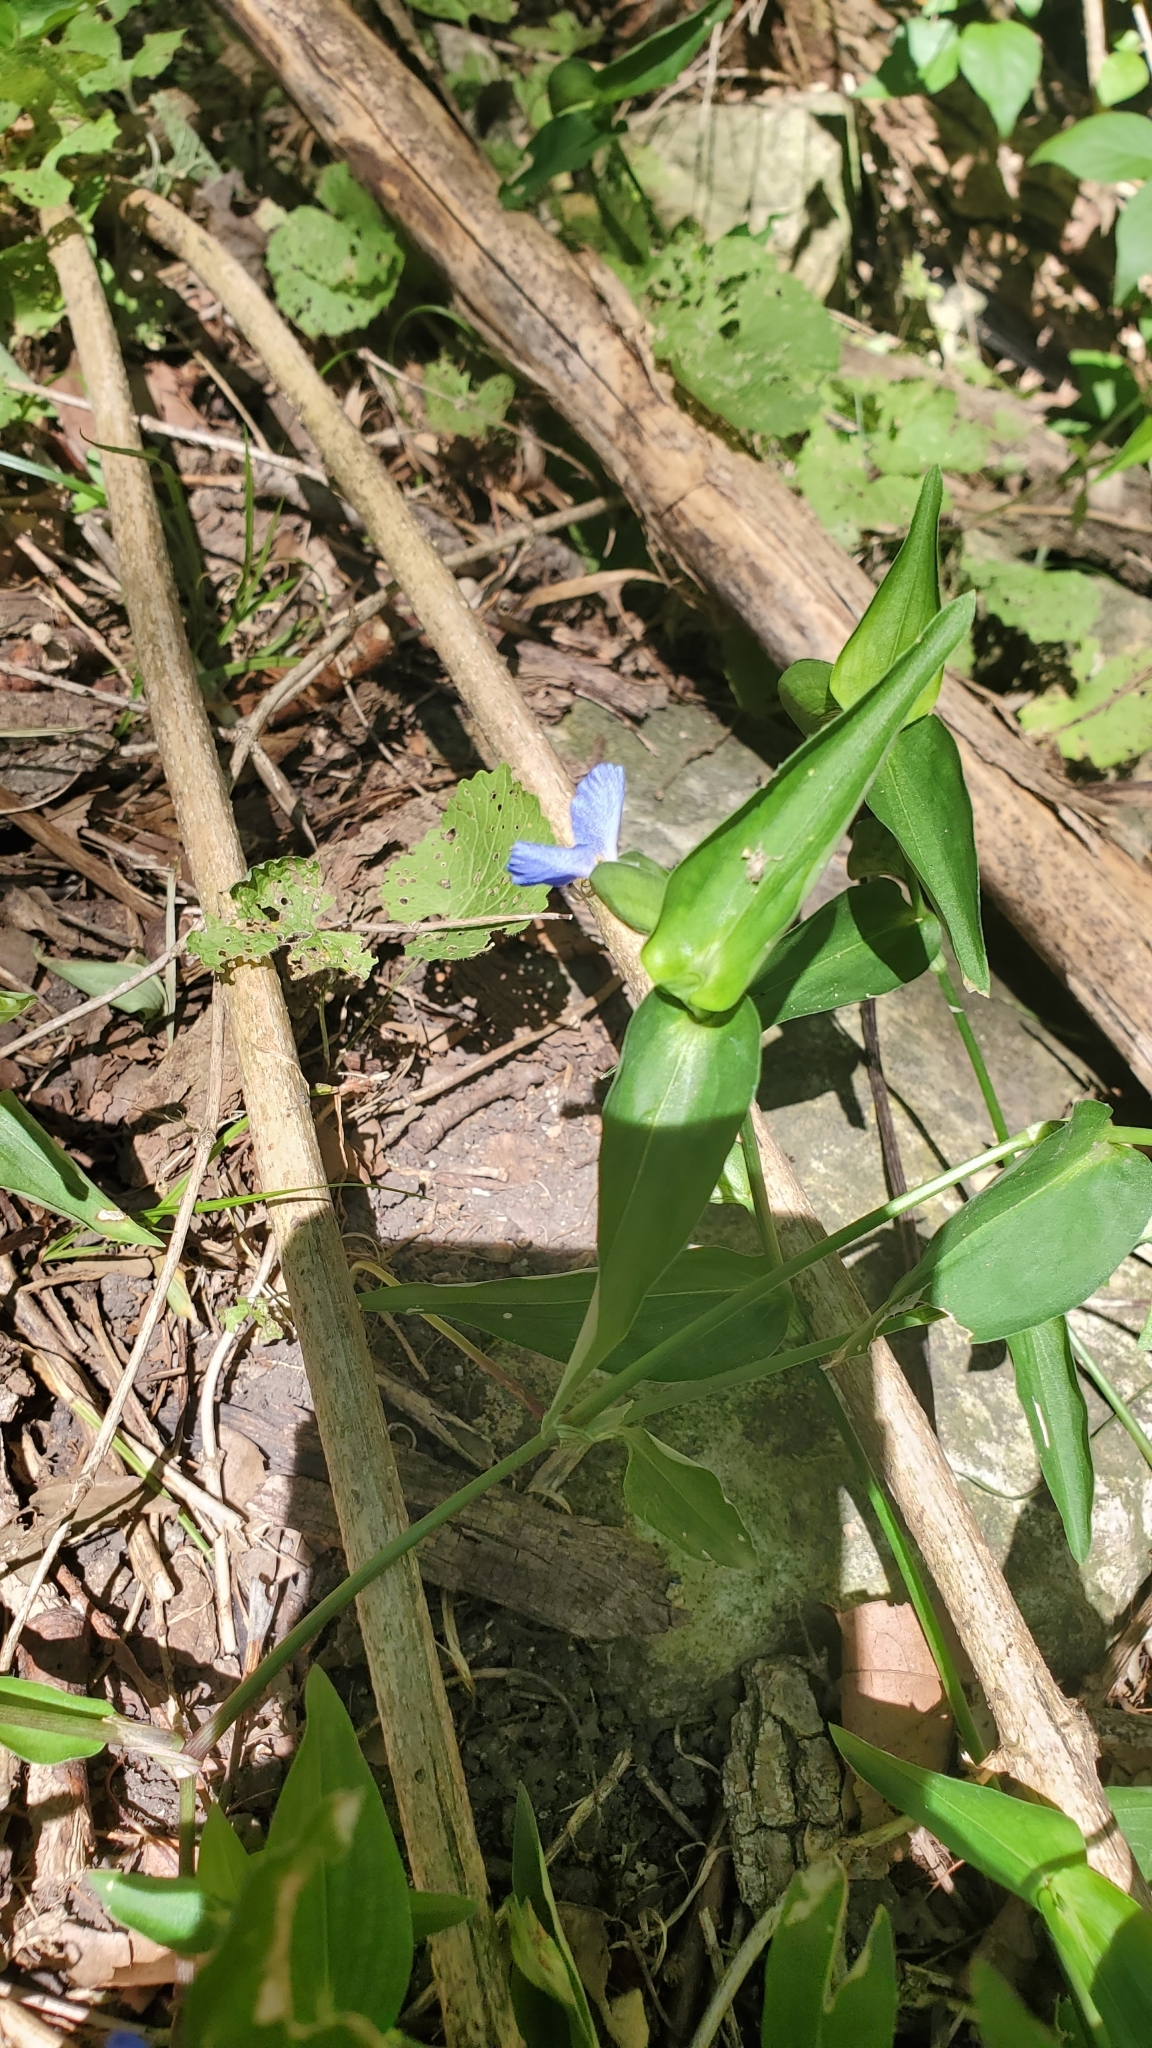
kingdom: Plantae
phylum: Tracheophyta
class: Liliopsida
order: Commelinales
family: Commelinaceae
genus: Commelina
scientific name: Commelina communis
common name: Asiatic dayflower
